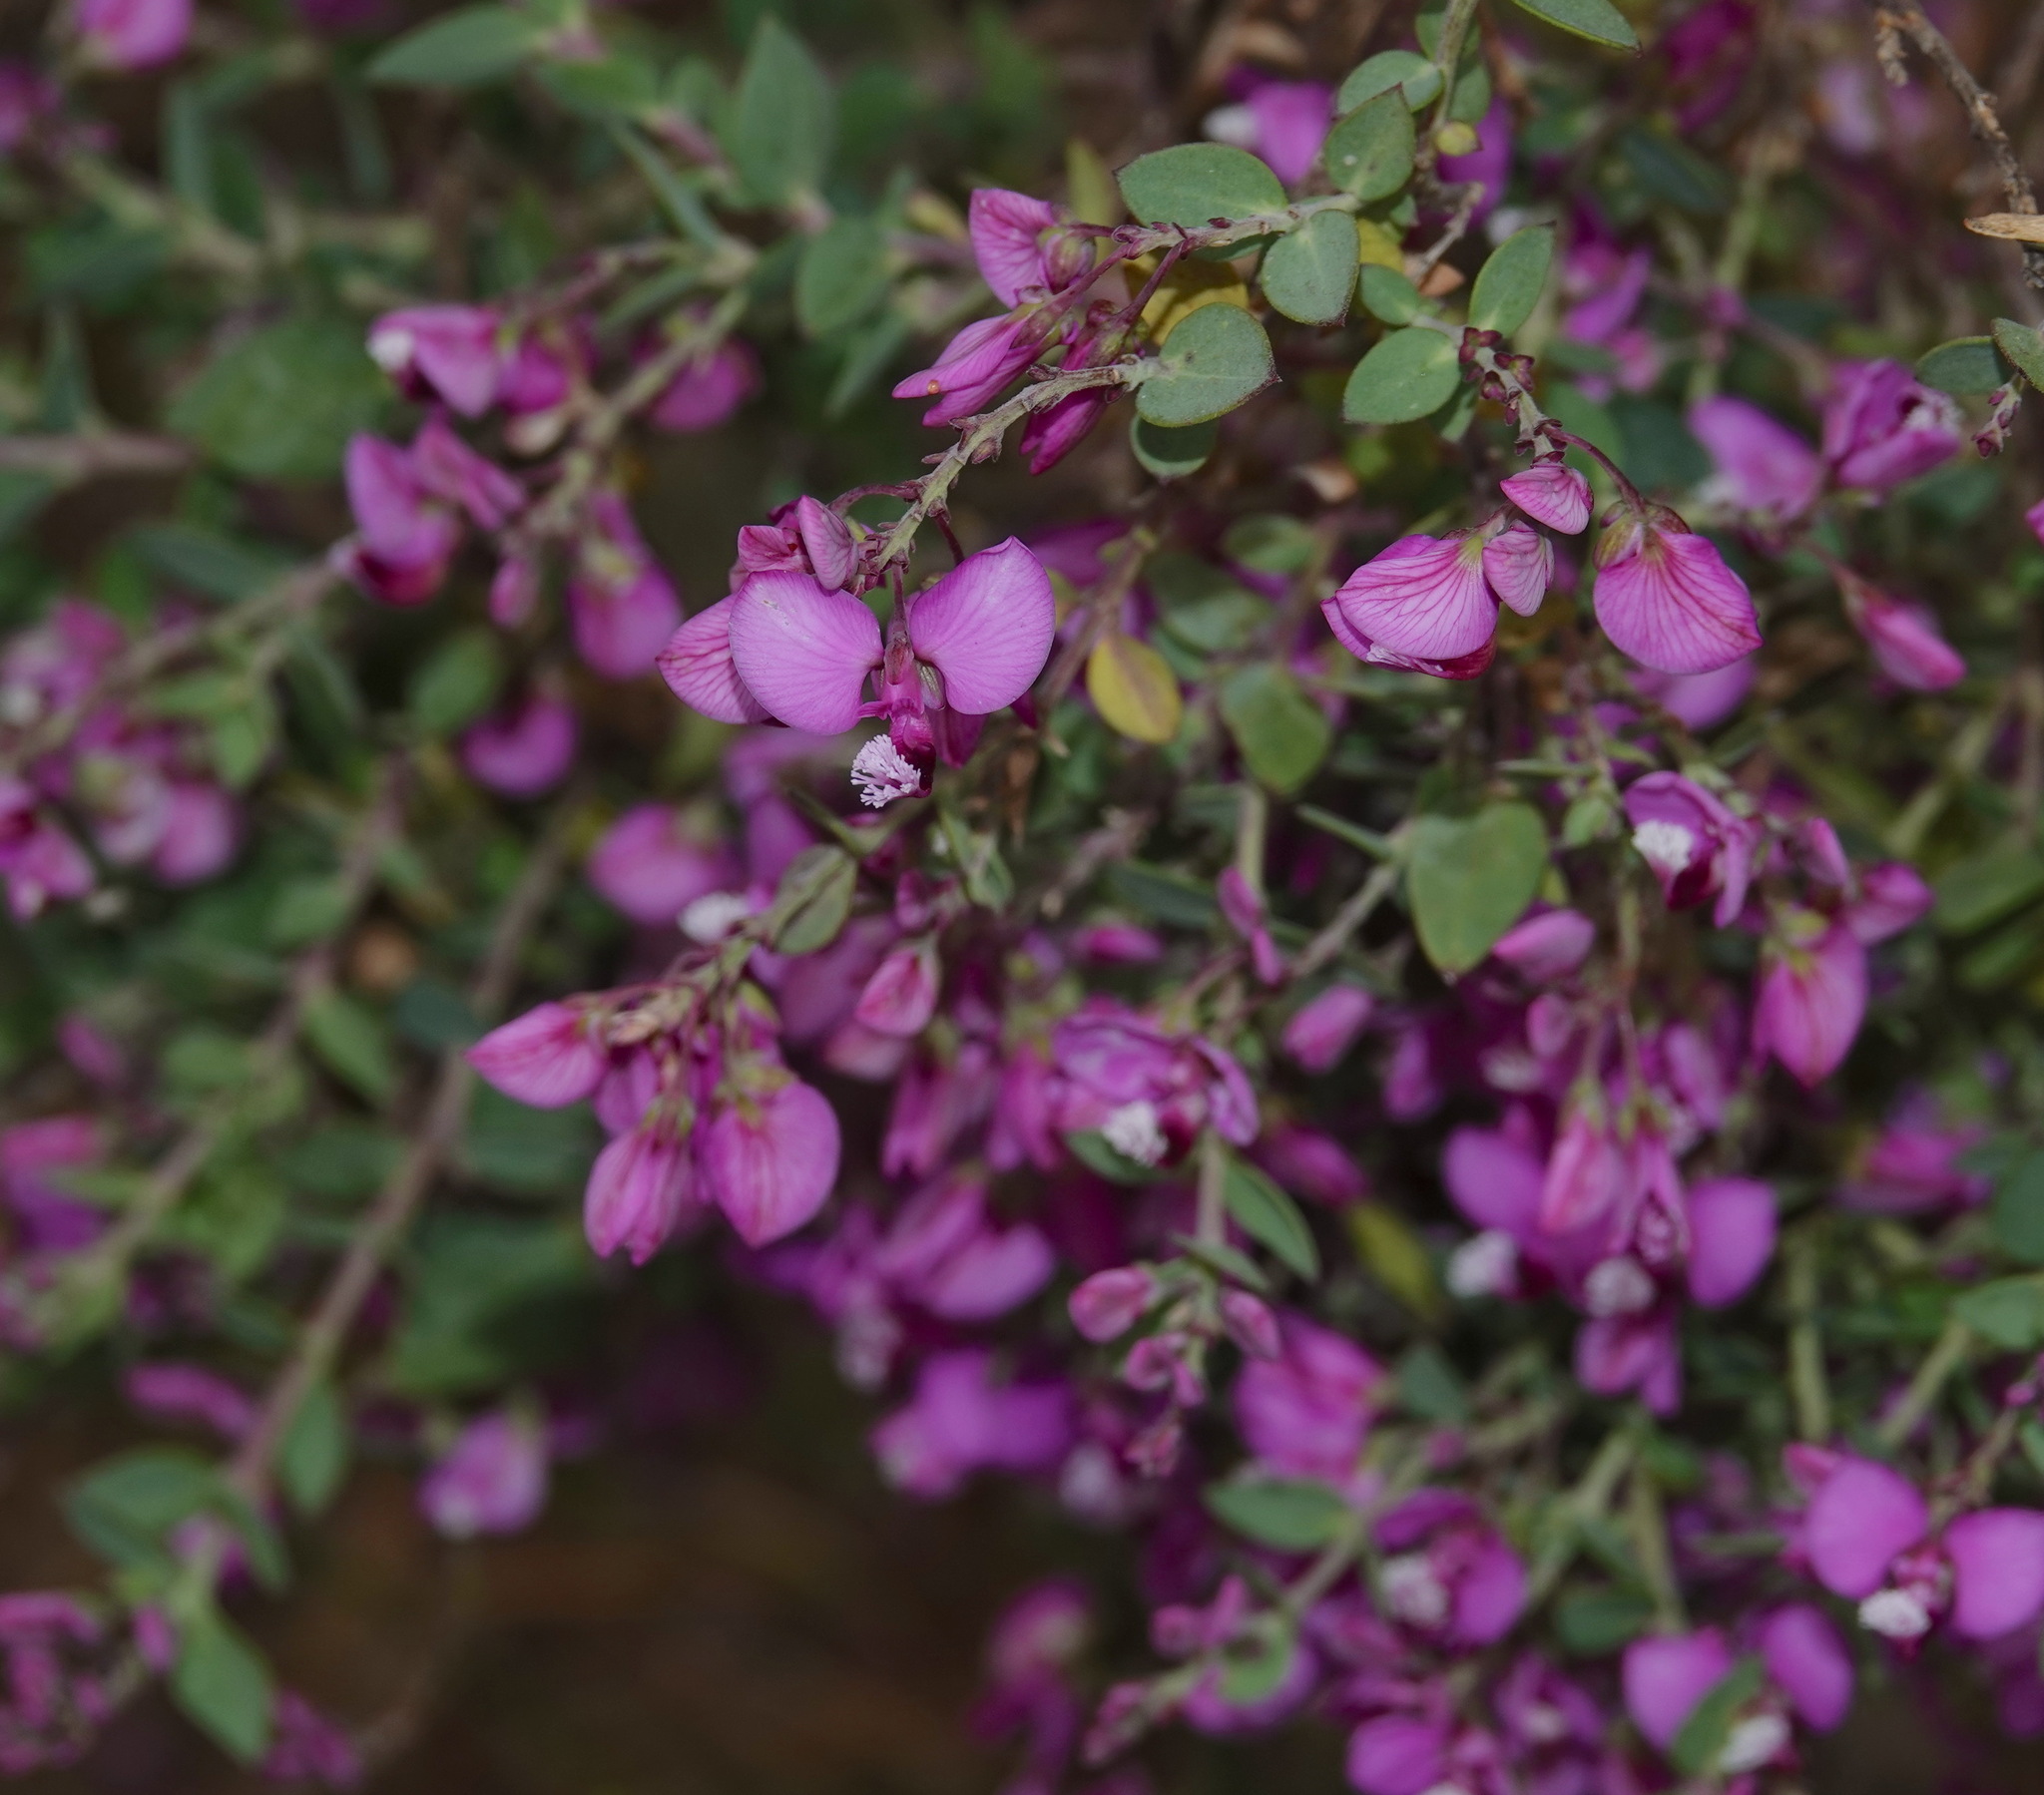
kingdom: Plantae
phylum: Tracheophyta
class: Magnoliopsida
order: Fabales
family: Polygalaceae
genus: Polygala
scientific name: Polygala fruticosa
